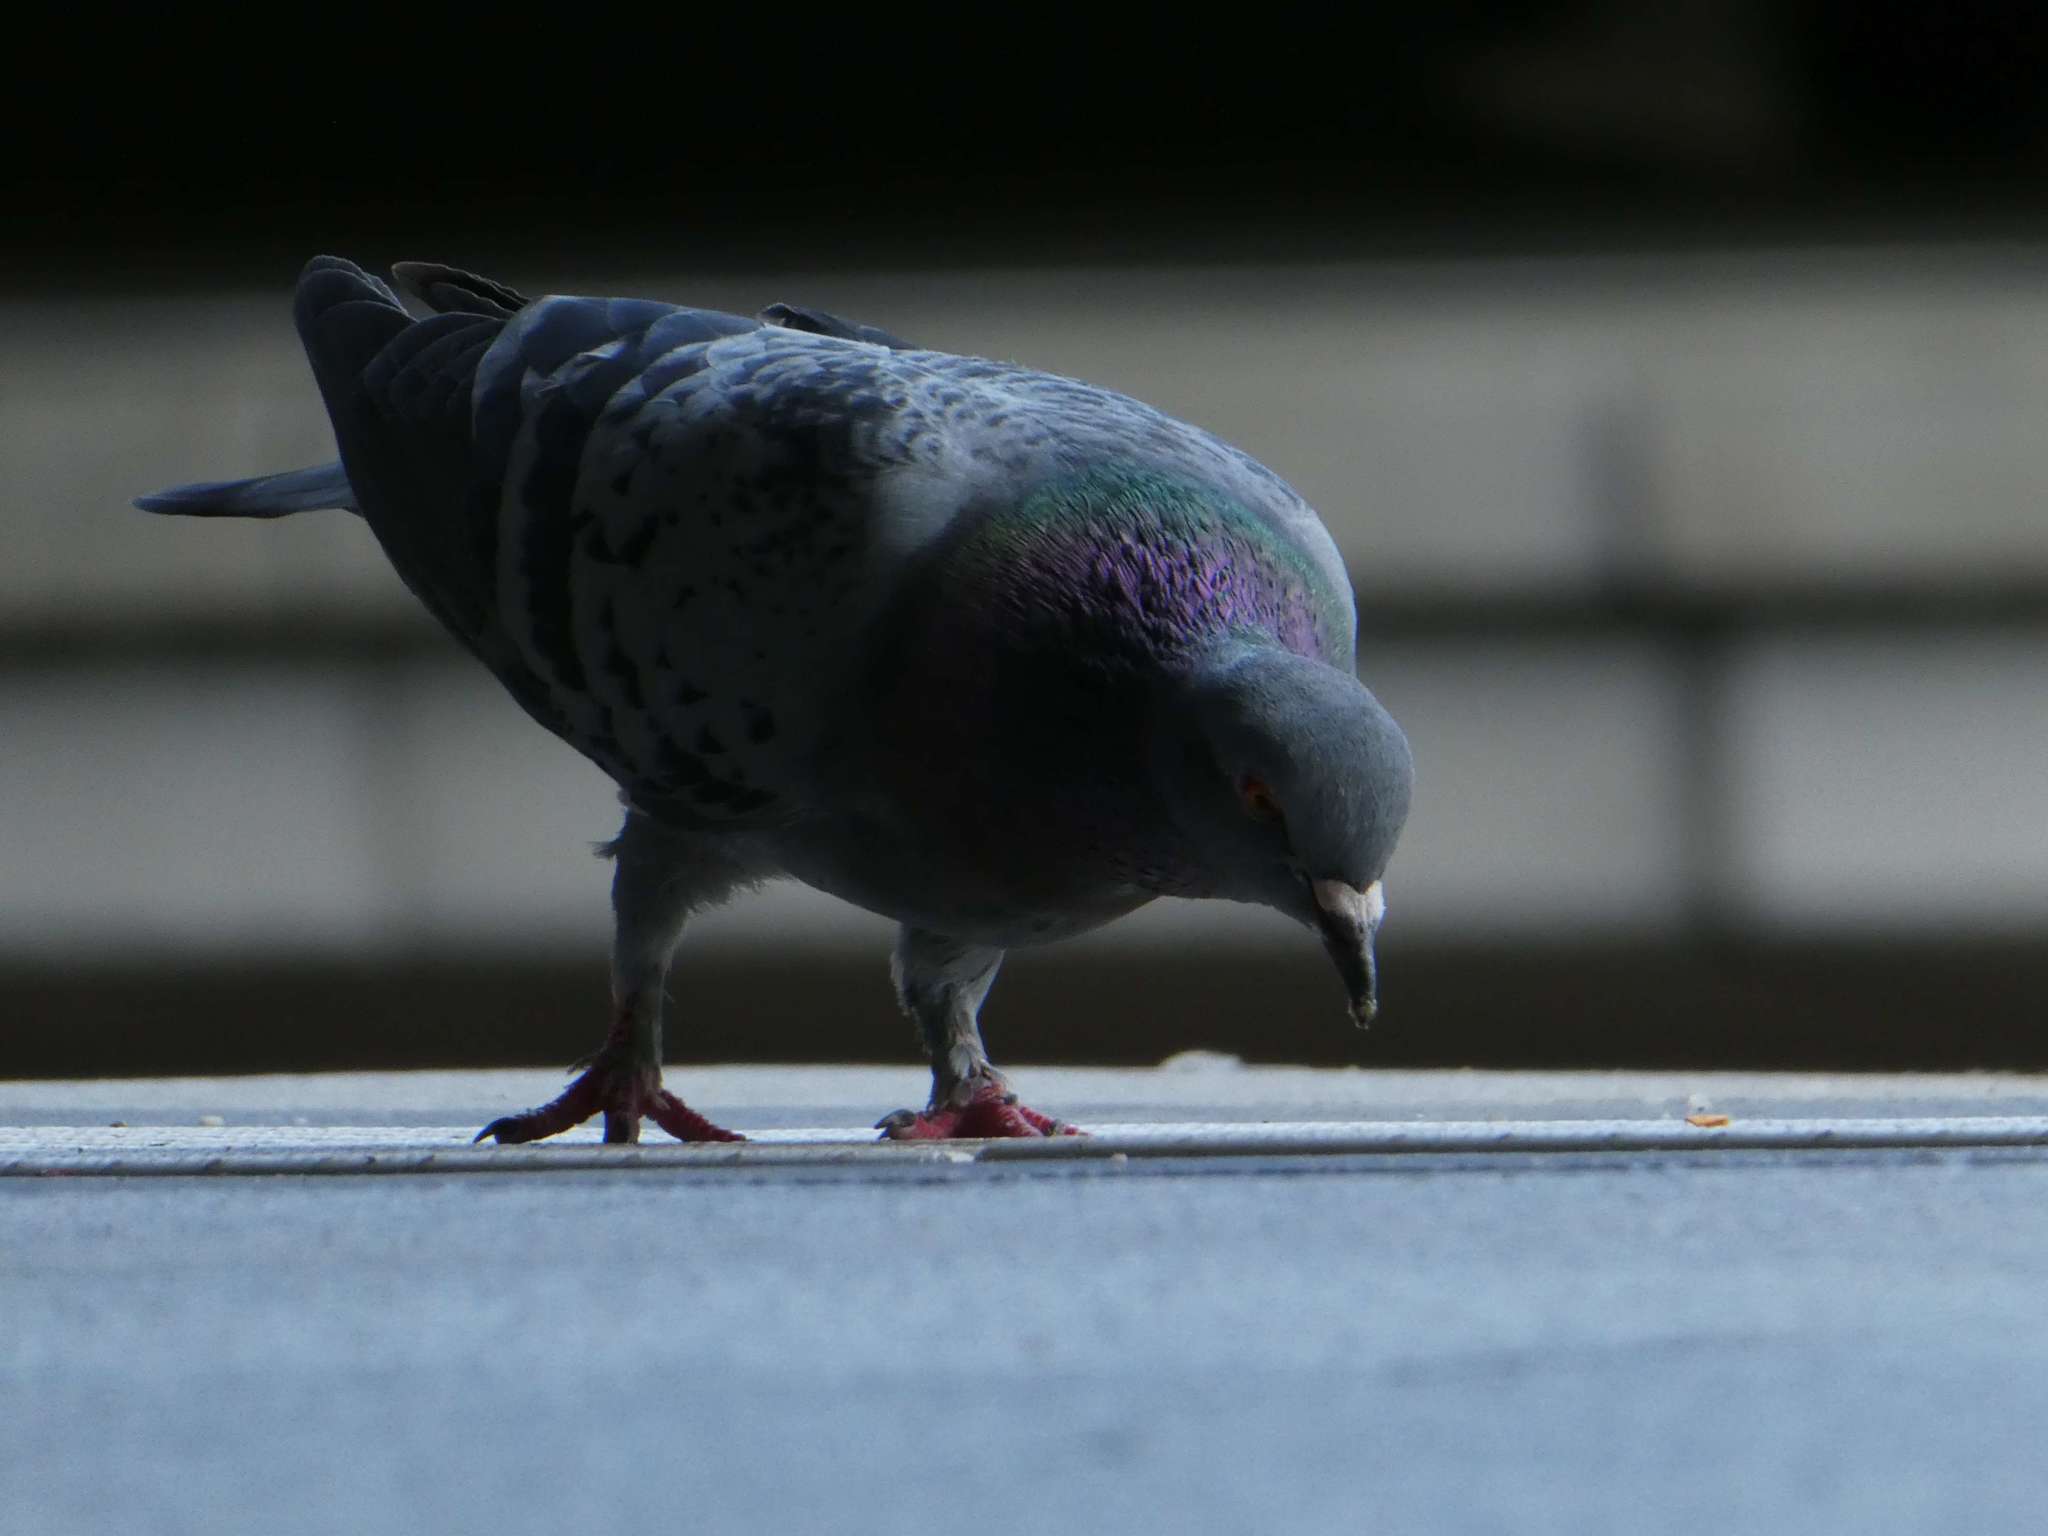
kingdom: Animalia
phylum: Chordata
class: Aves
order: Columbiformes
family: Columbidae
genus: Columba
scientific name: Columba livia
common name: Rock pigeon
